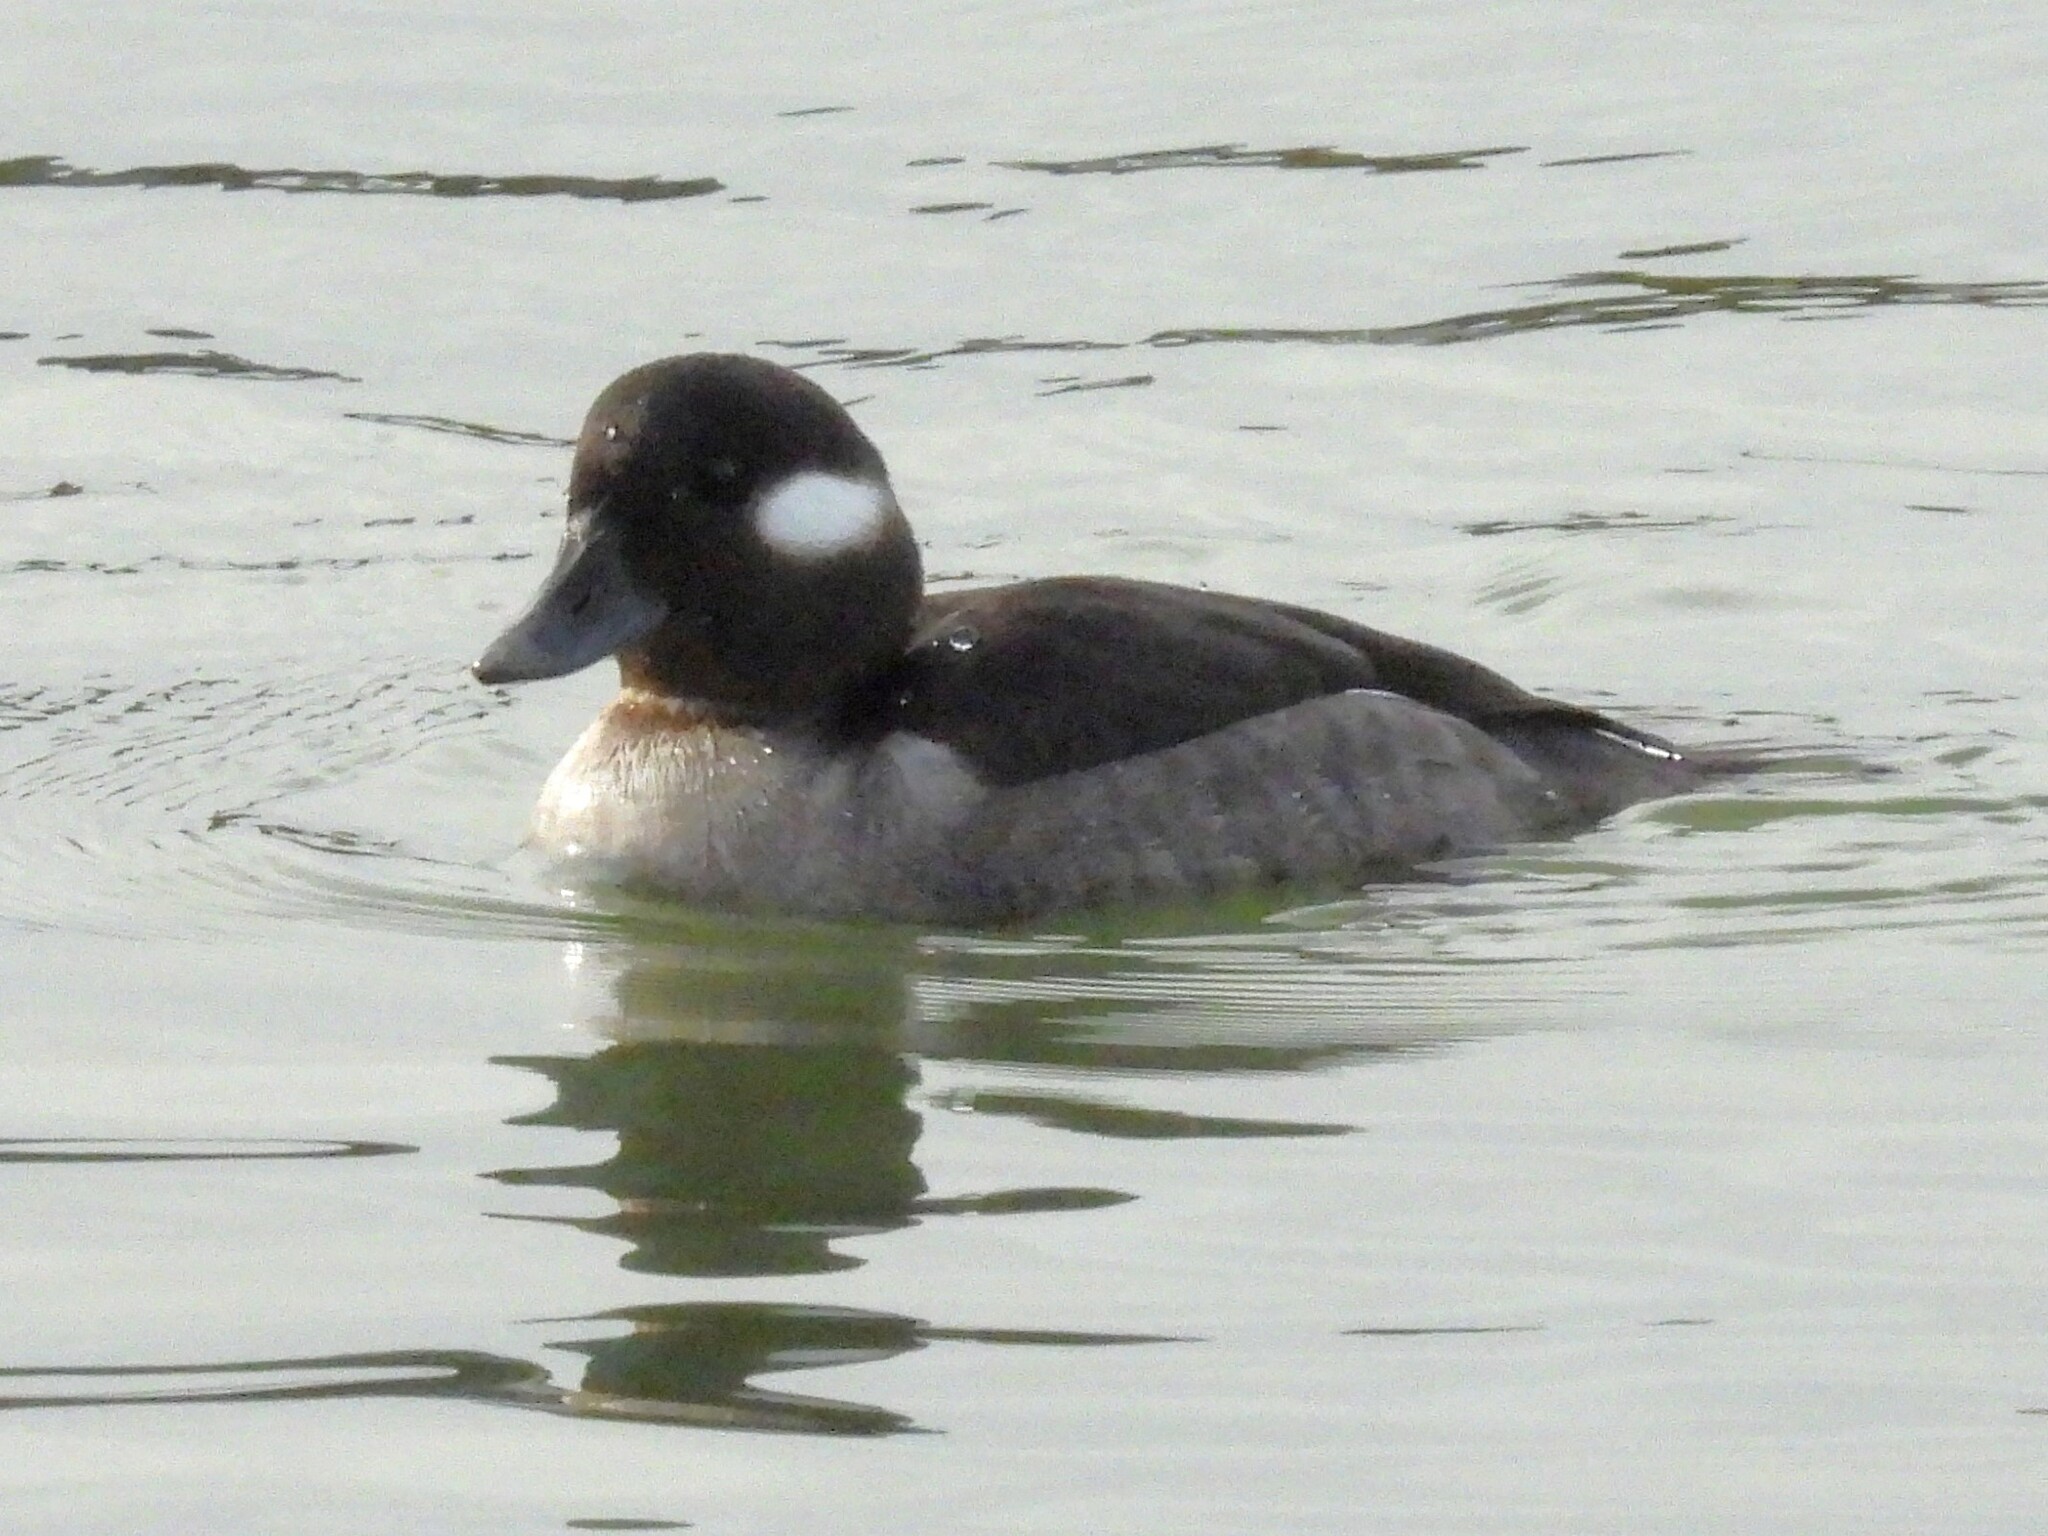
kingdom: Animalia
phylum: Chordata
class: Aves
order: Anseriformes
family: Anatidae
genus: Bucephala
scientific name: Bucephala albeola
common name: Bufflehead
